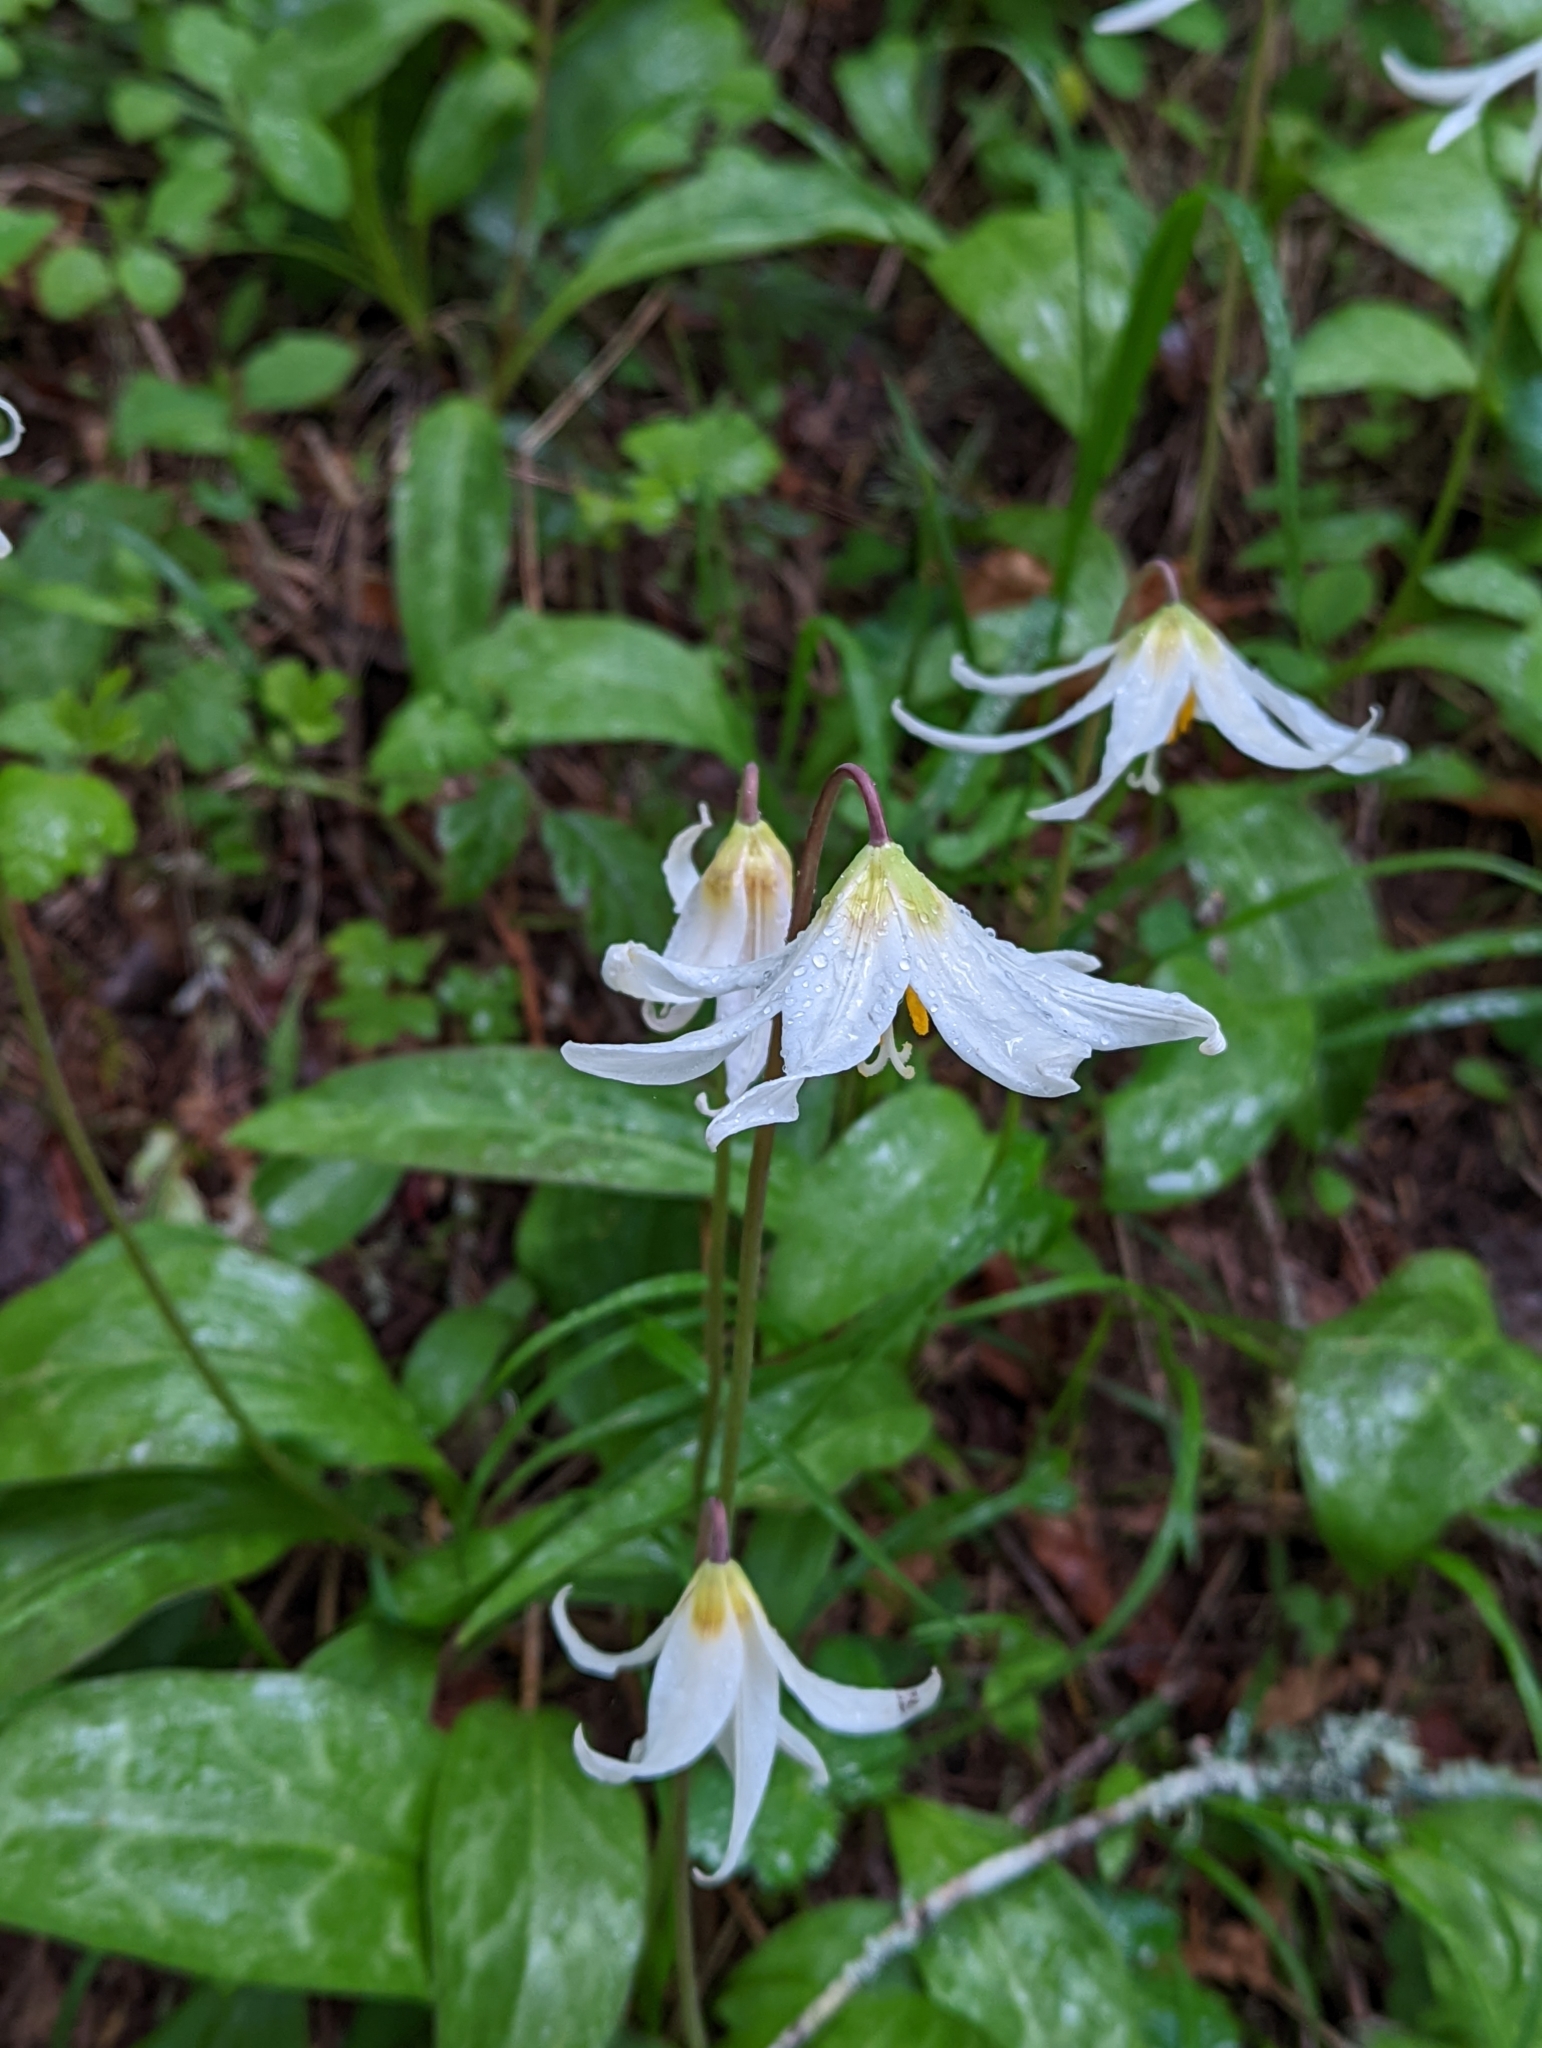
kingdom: Plantae
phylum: Tracheophyta
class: Liliopsida
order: Liliales
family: Liliaceae
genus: Erythronium
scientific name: Erythronium oregonum
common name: Giant adder's-tongue
